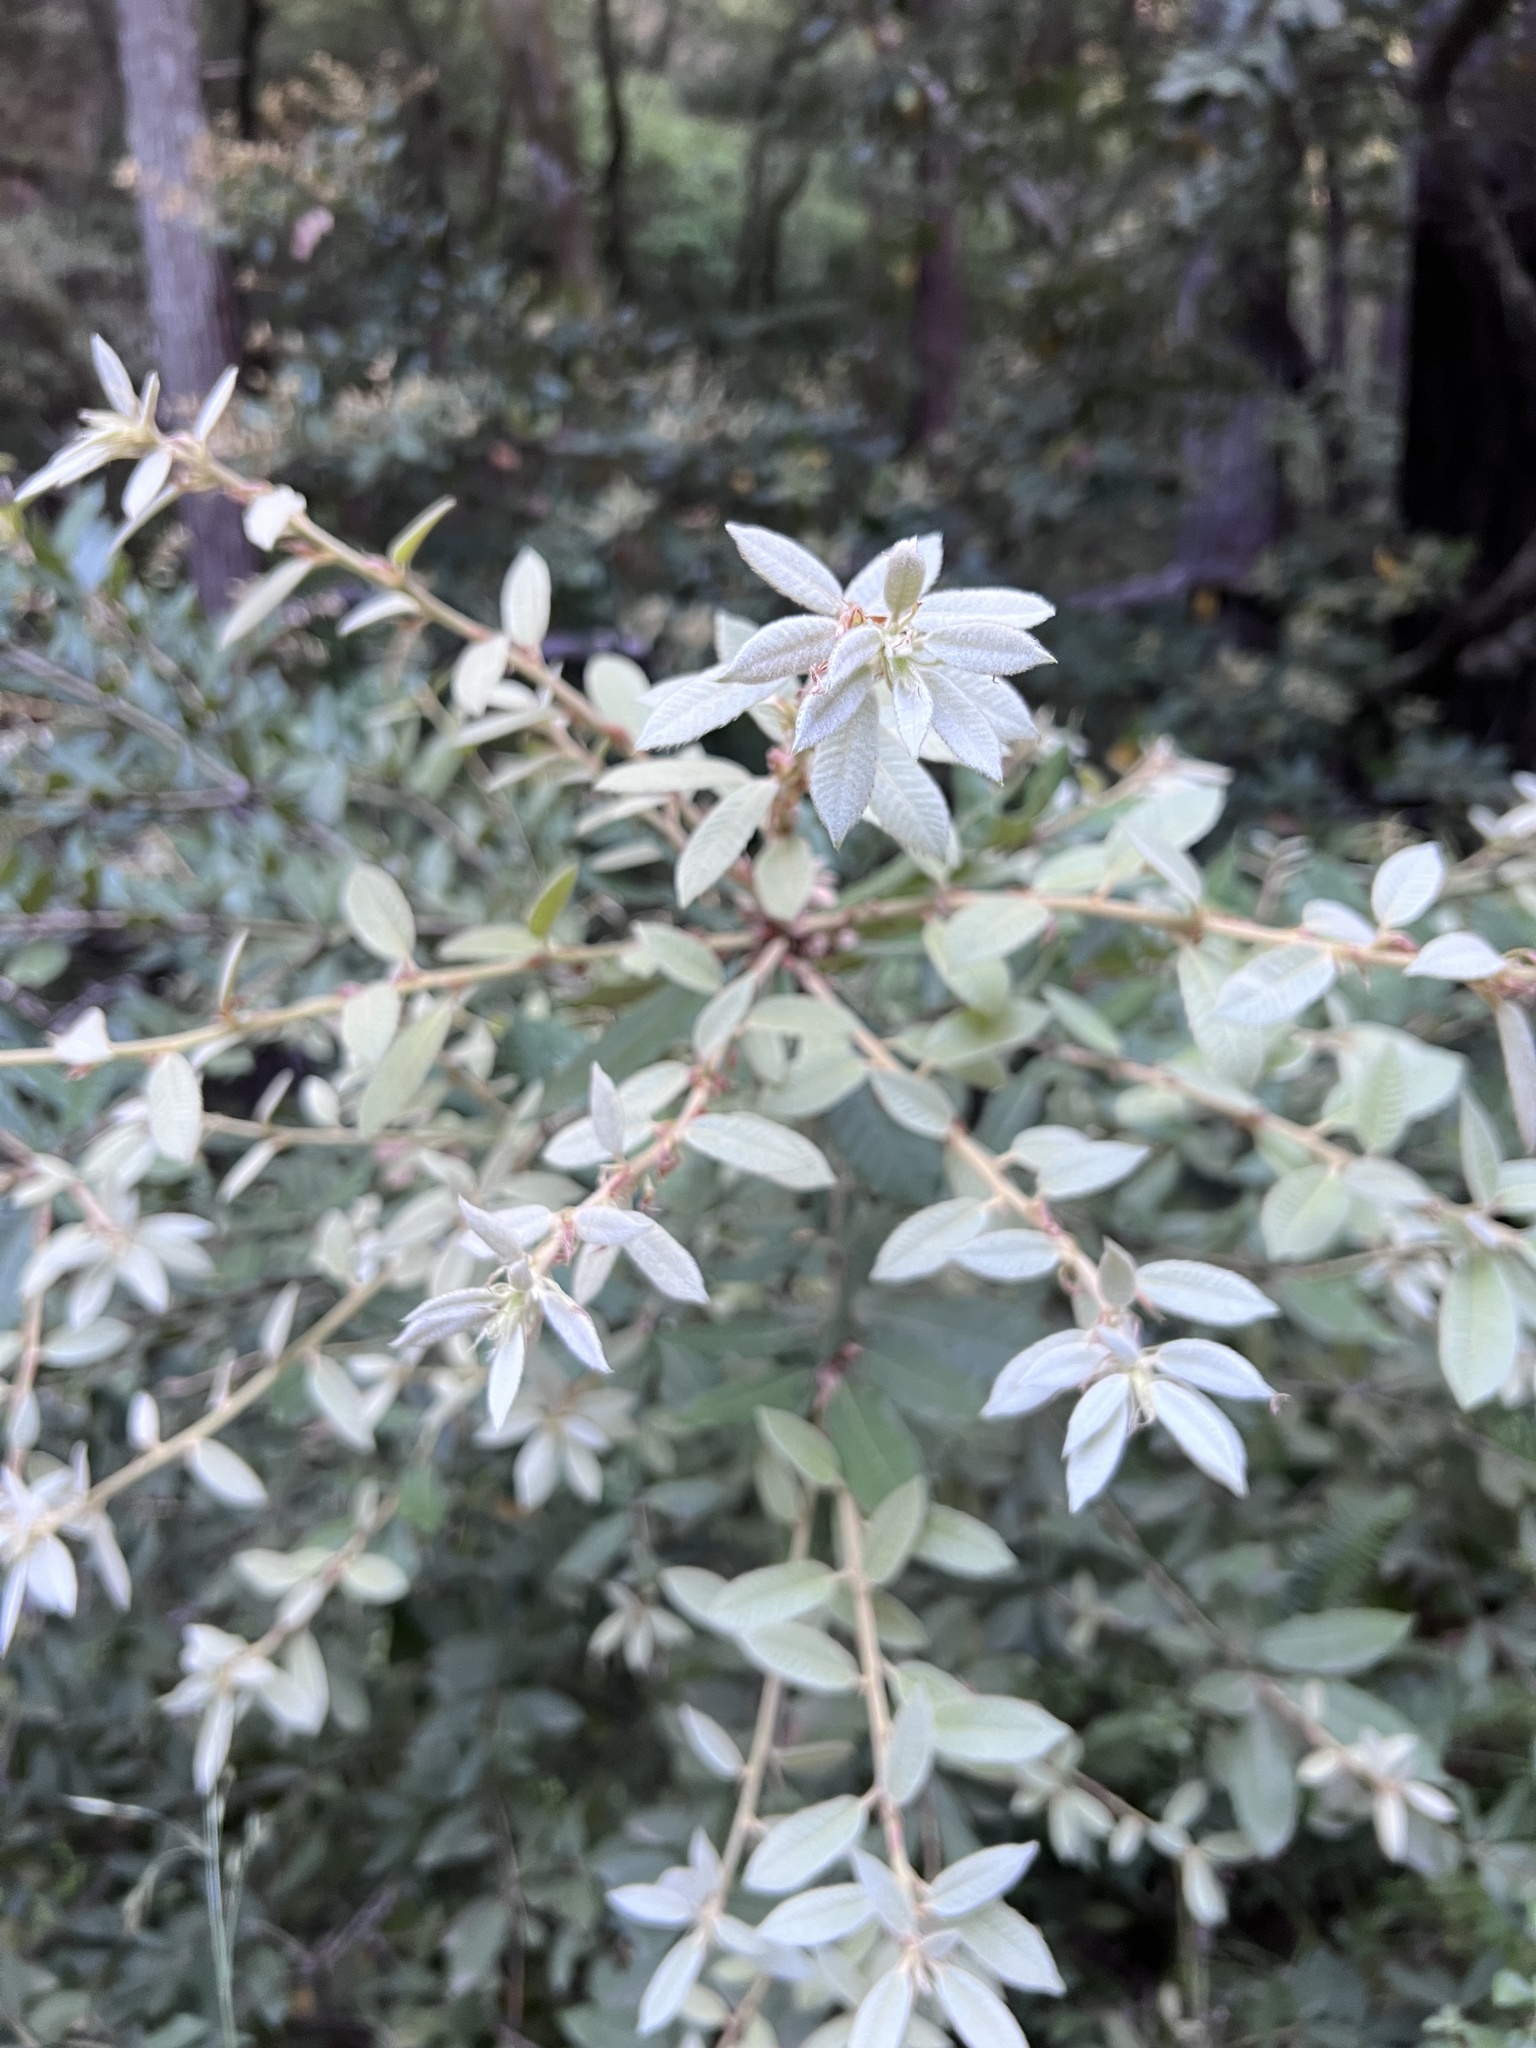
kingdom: Plantae
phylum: Tracheophyta
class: Magnoliopsida
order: Fagales
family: Fagaceae
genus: Notholithocarpus
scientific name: Notholithocarpus densiflorus
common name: Tan bark oak
